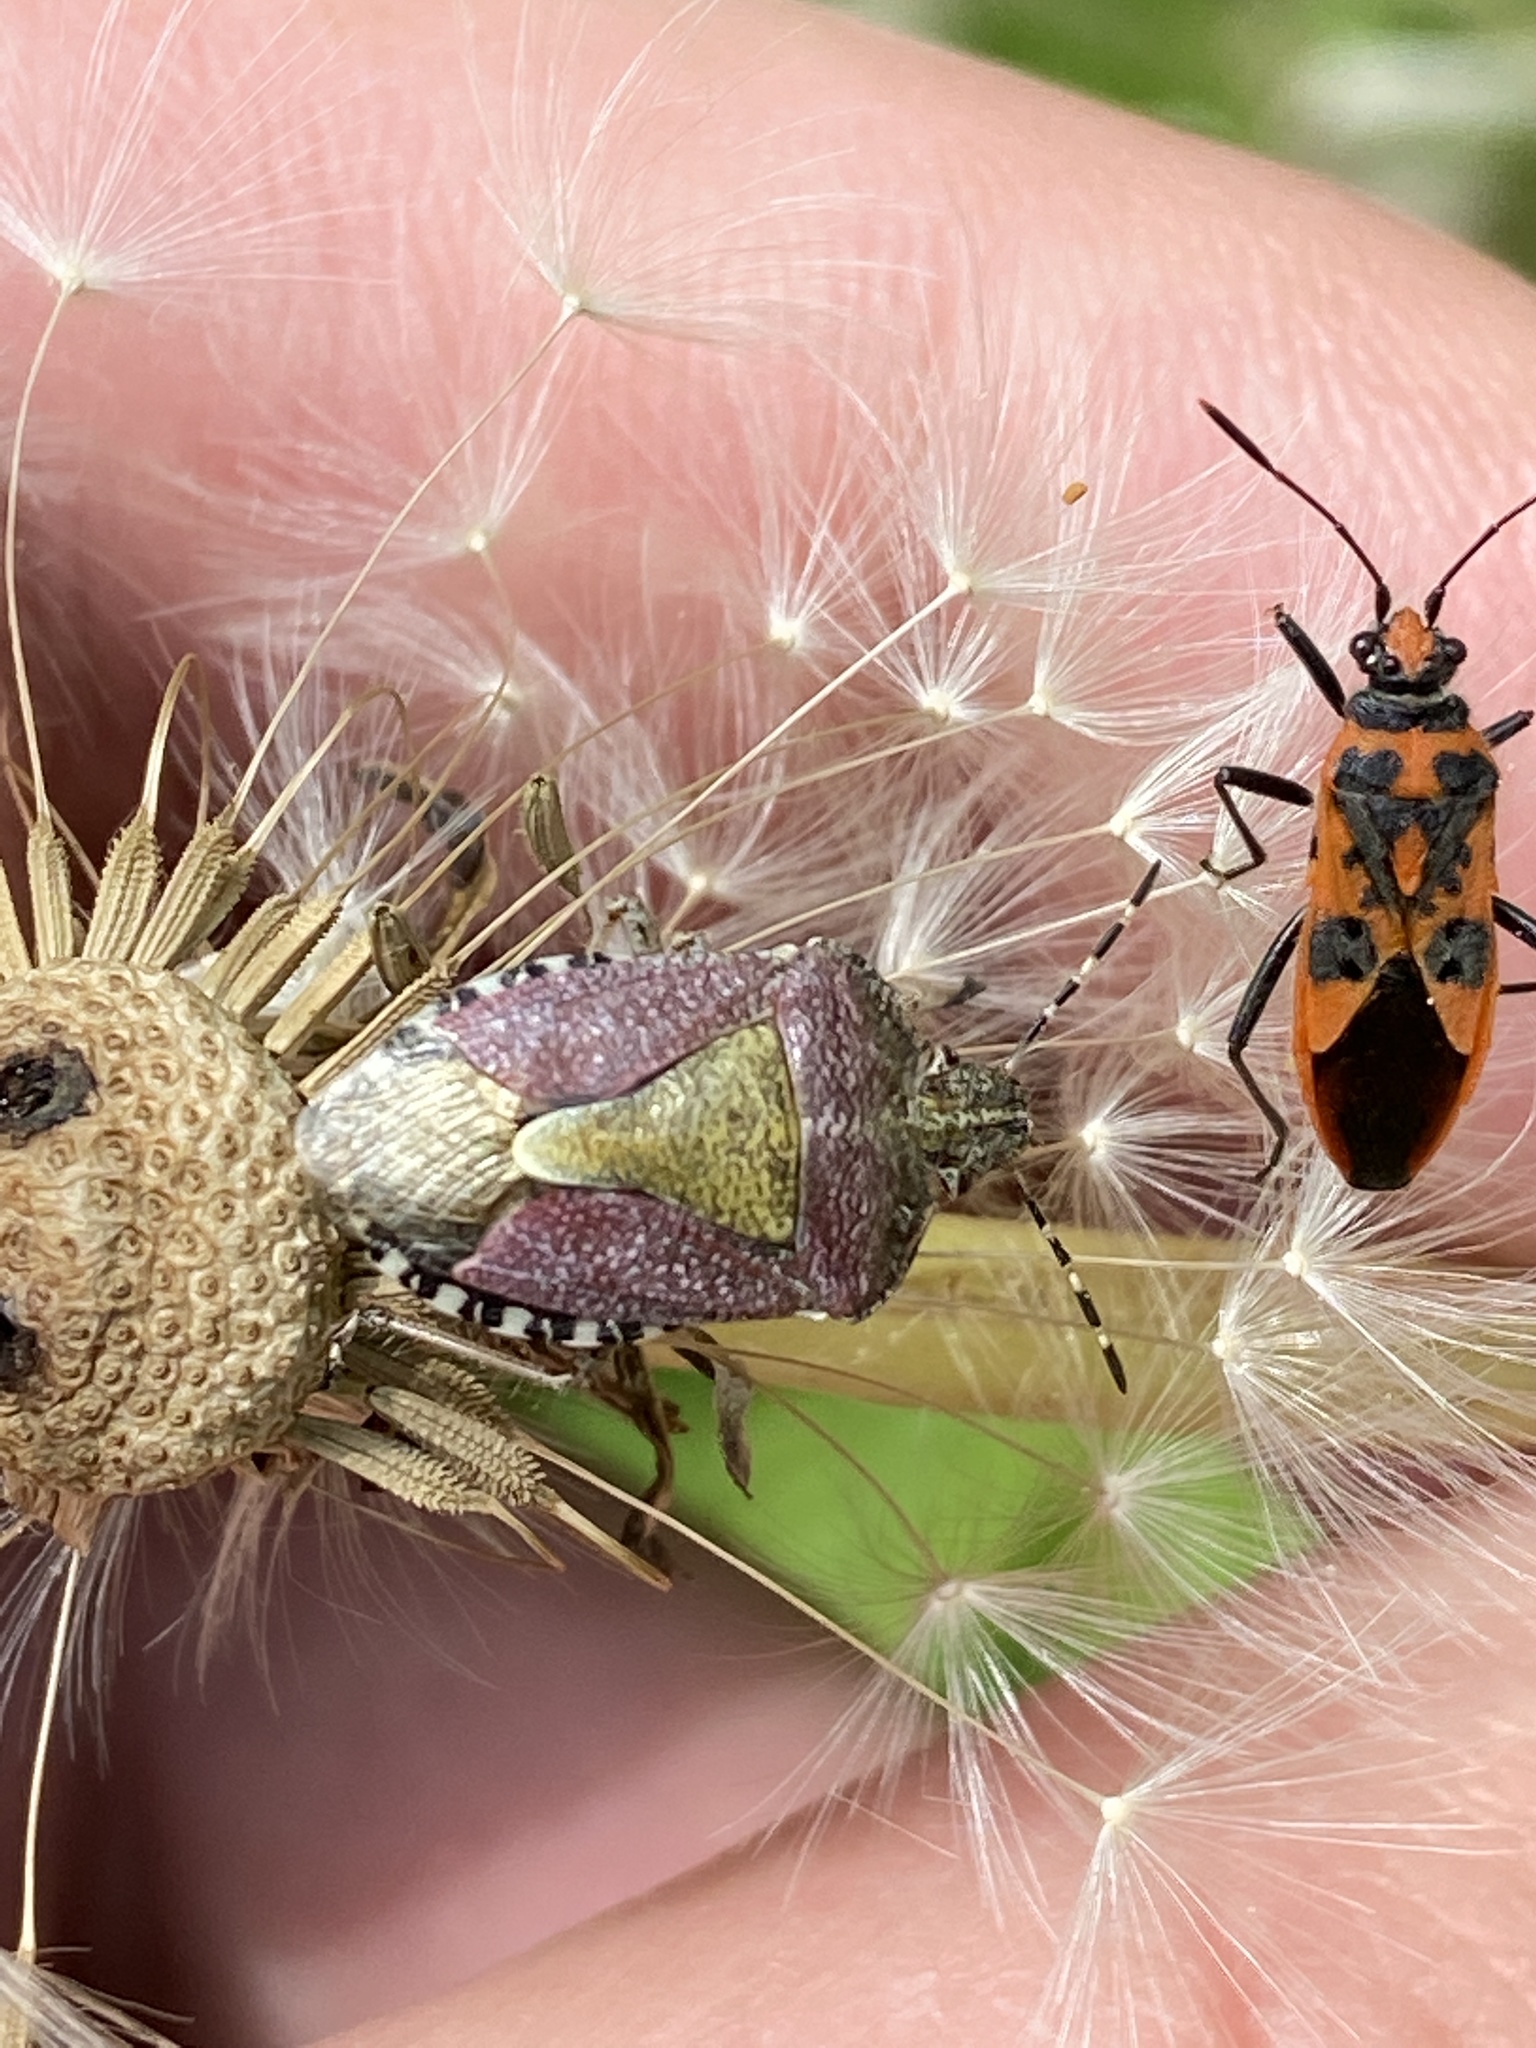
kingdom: Animalia
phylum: Arthropoda
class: Insecta
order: Hemiptera
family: Pentatomidae
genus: Dolycoris
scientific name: Dolycoris baccarum
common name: Sloe bug
